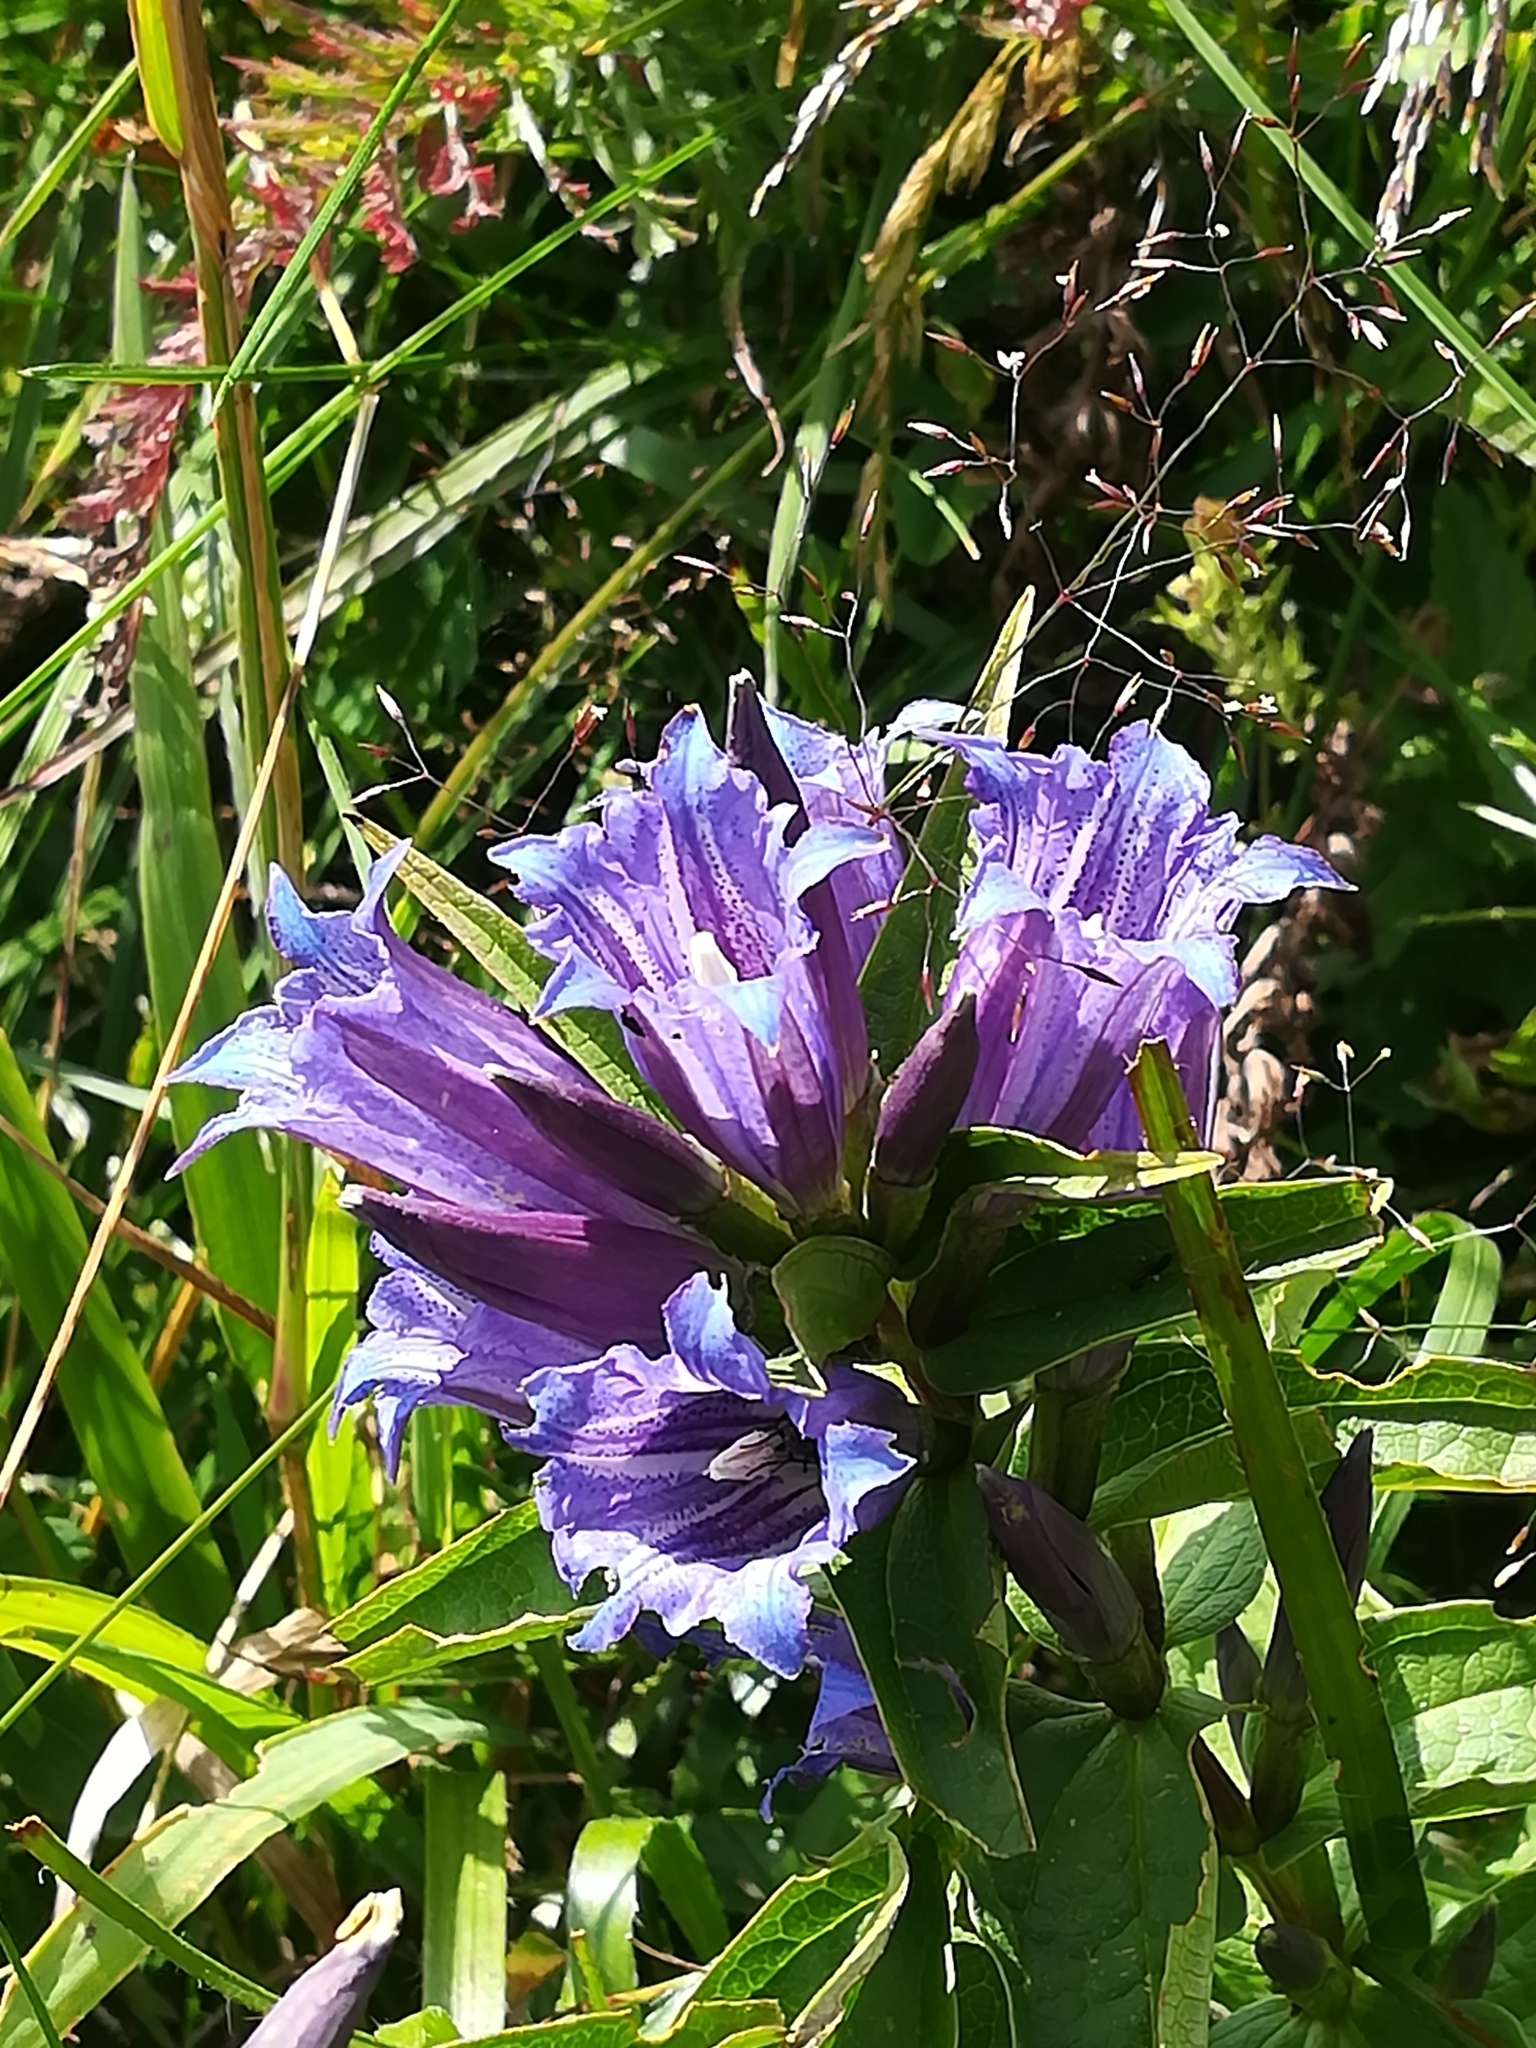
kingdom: Plantae
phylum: Tracheophyta
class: Magnoliopsida
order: Gentianales
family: Gentianaceae
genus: Gentiana
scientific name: Gentiana asclepiadea
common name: Willow gentian
